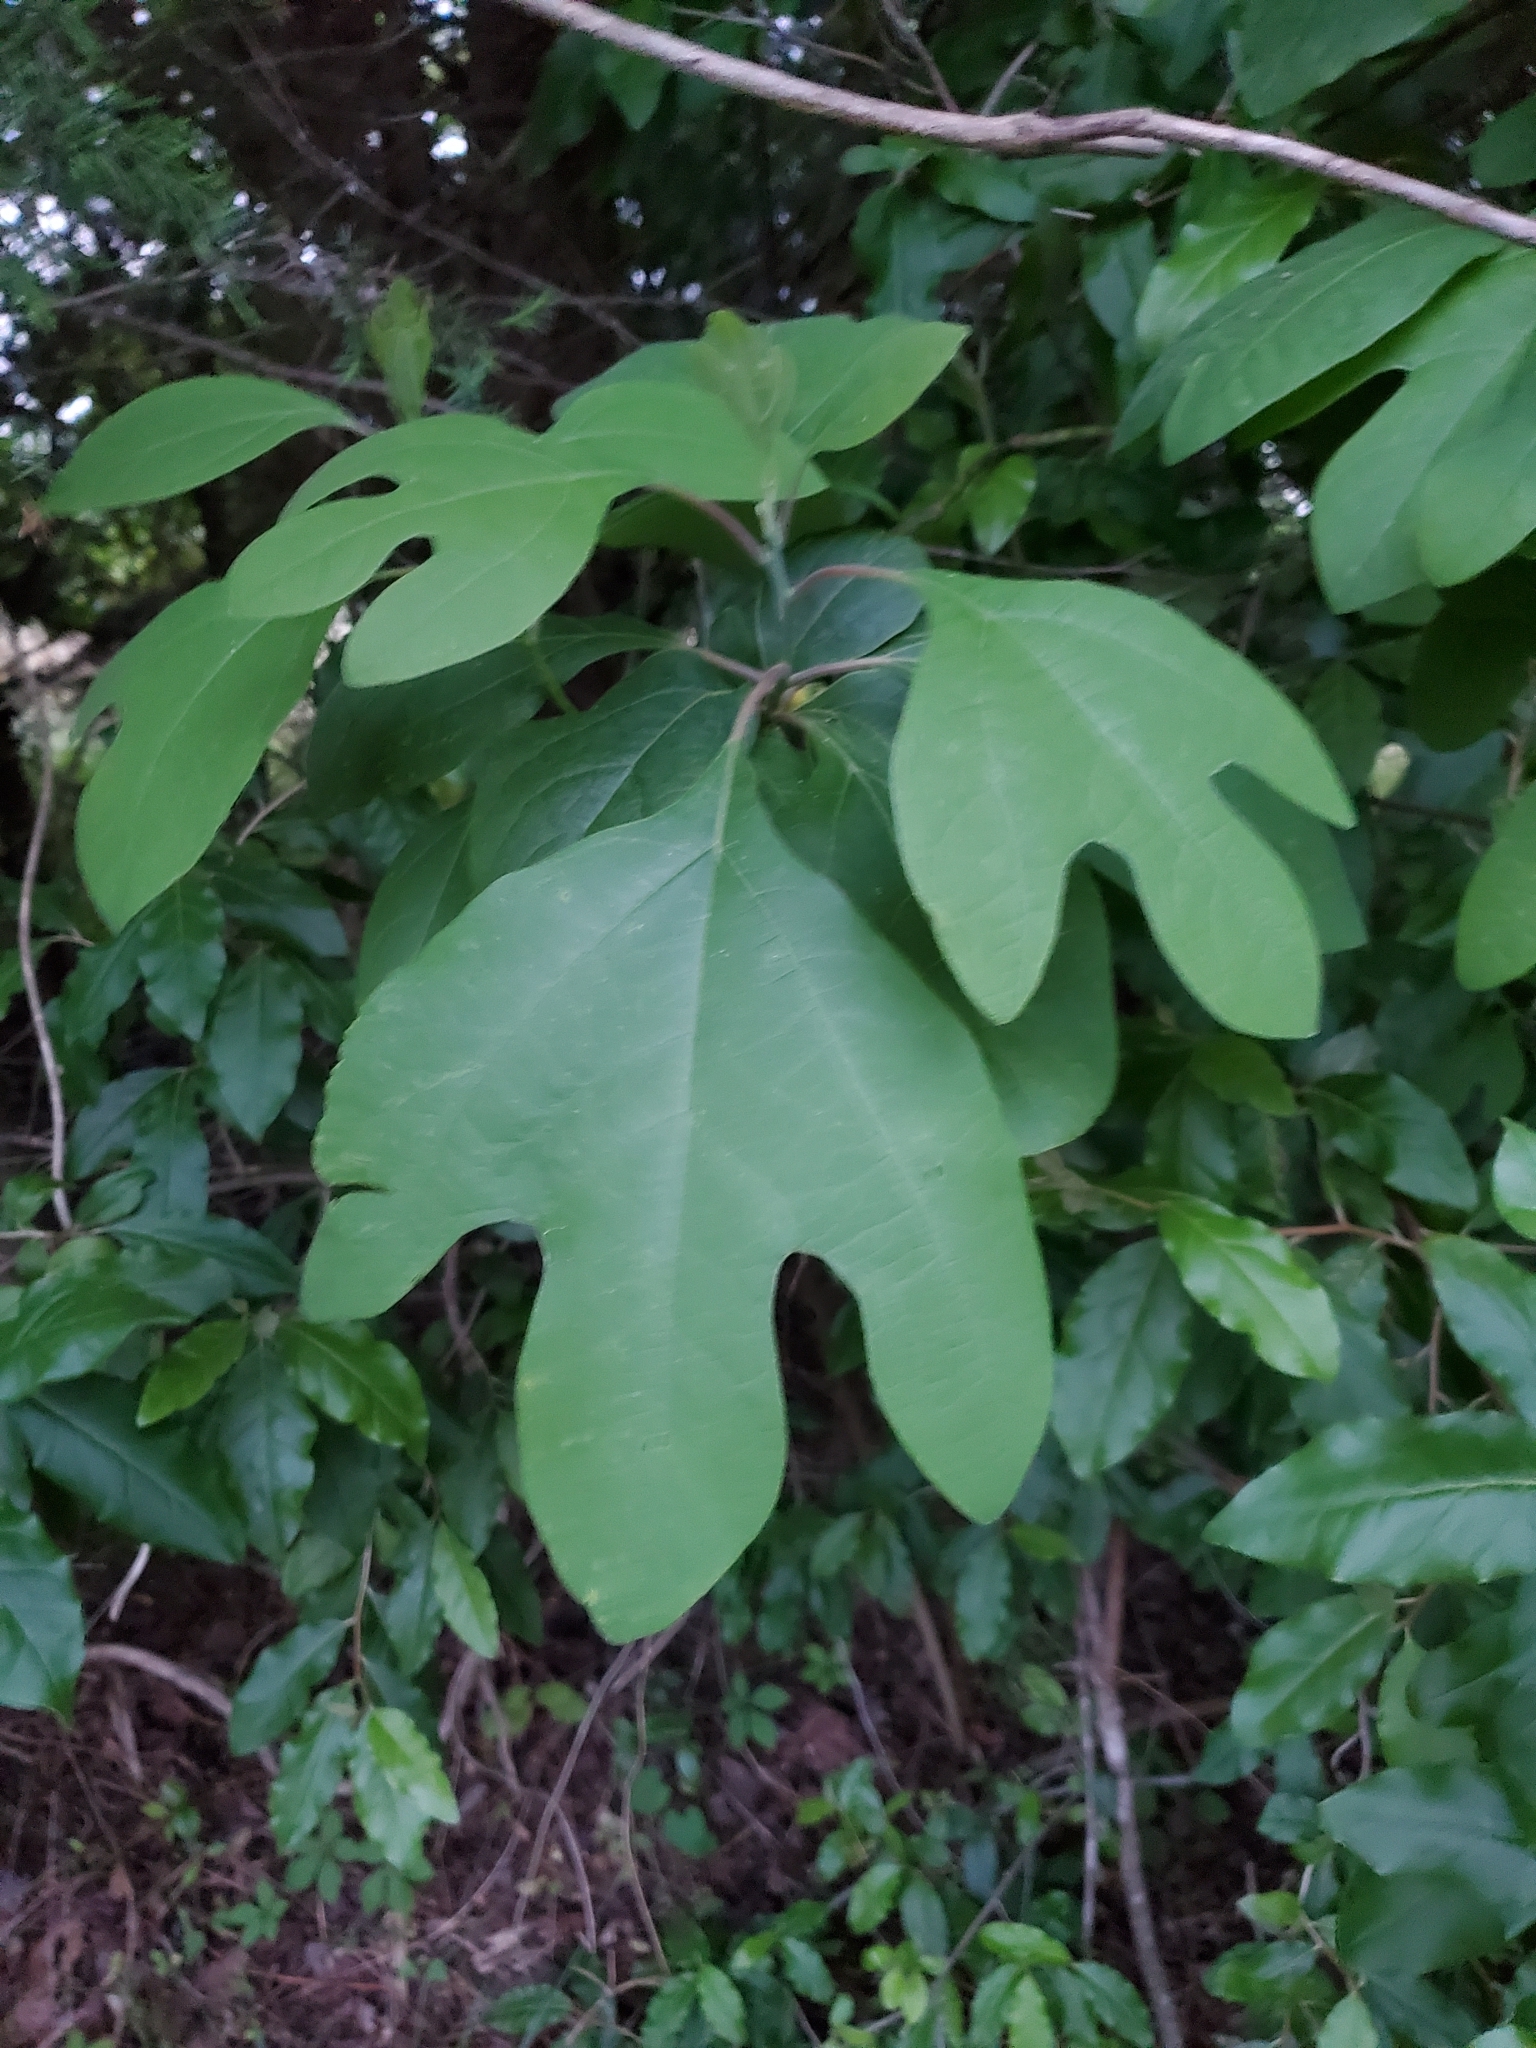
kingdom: Plantae
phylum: Tracheophyta
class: Magnoliopsida
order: Laurales
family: Lauraceae
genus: Sassafras
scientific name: Sassafras albidum
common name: Sassafras
